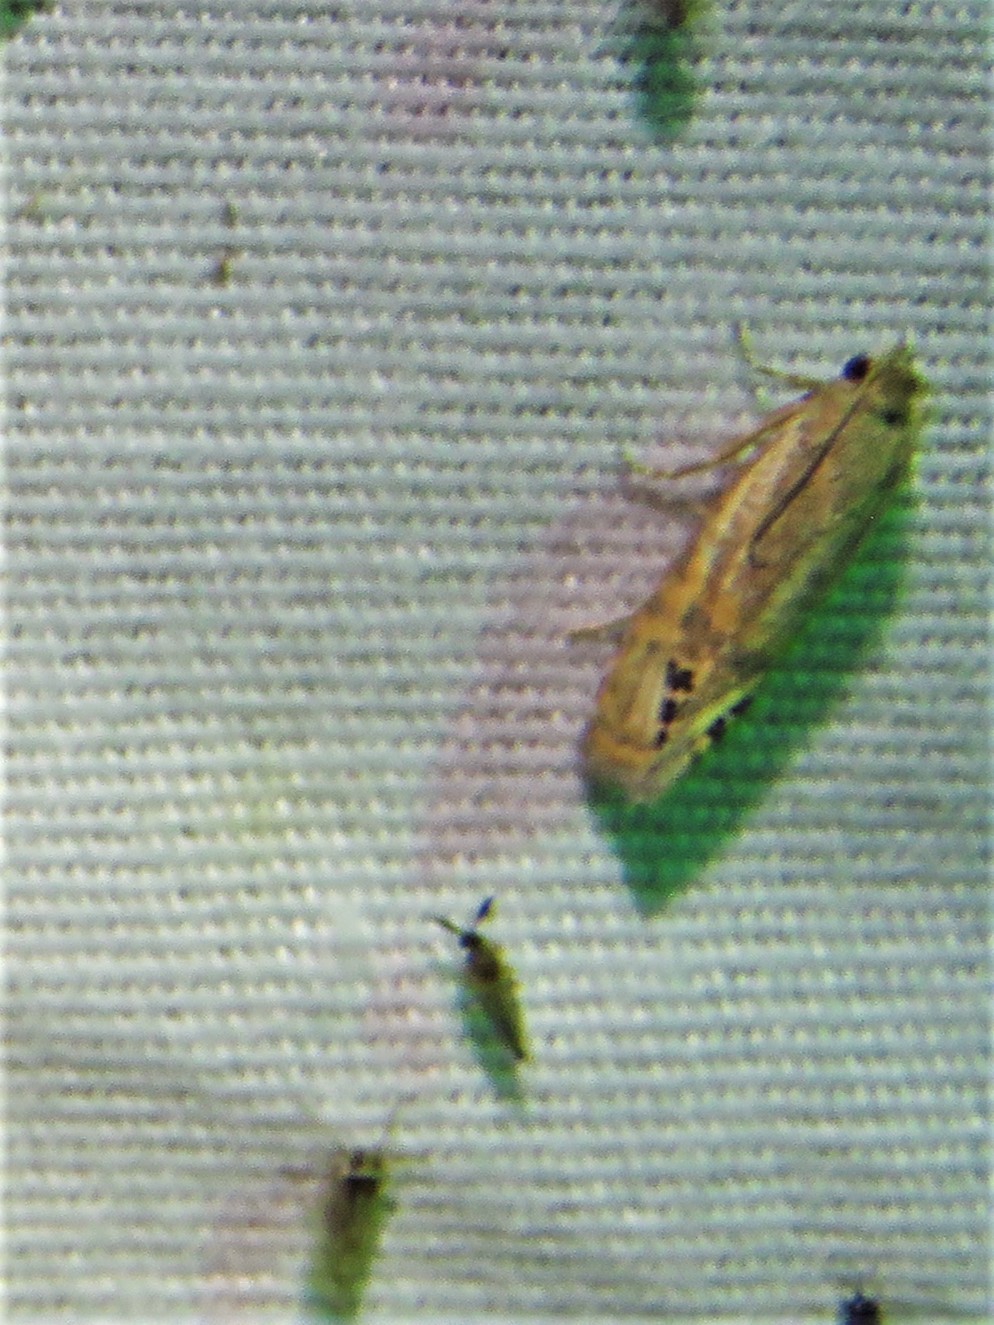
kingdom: Animalia
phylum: Arthropoda
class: Insecta
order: Lepidoptera
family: Tortricidae
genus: Pelochrista
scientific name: Pelochrista scintillana
